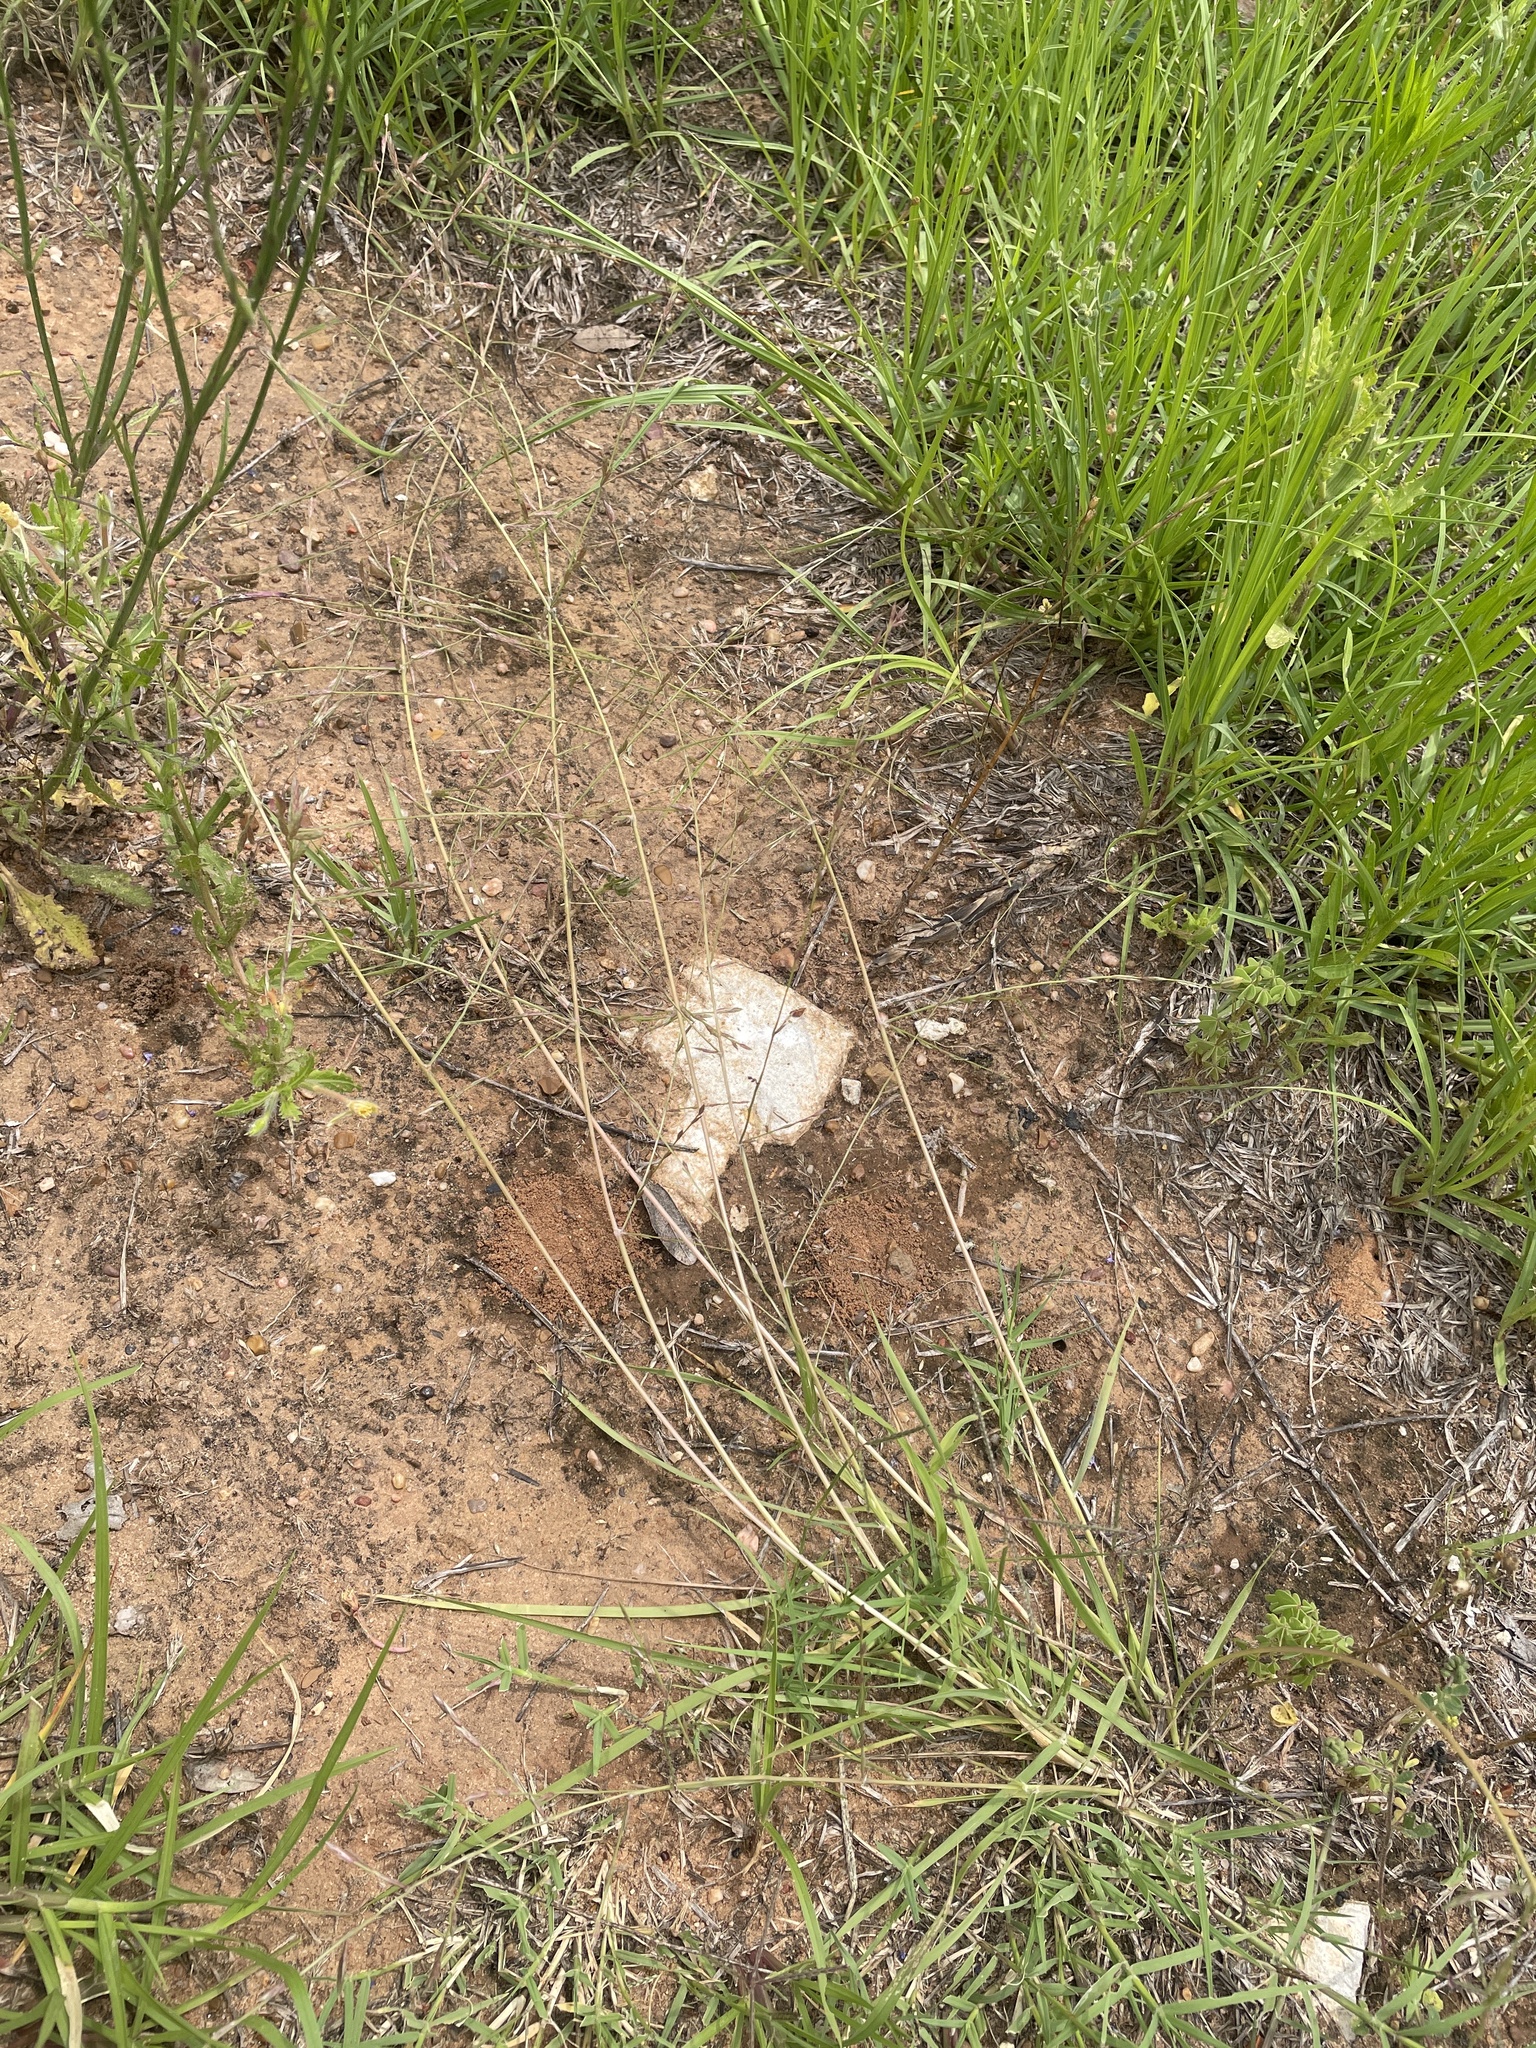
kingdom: Plantae
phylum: Tracheophyta
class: Liliopsida
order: Poales
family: Poaceae
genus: Eragrostis
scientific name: Eragrostis sessilispica
